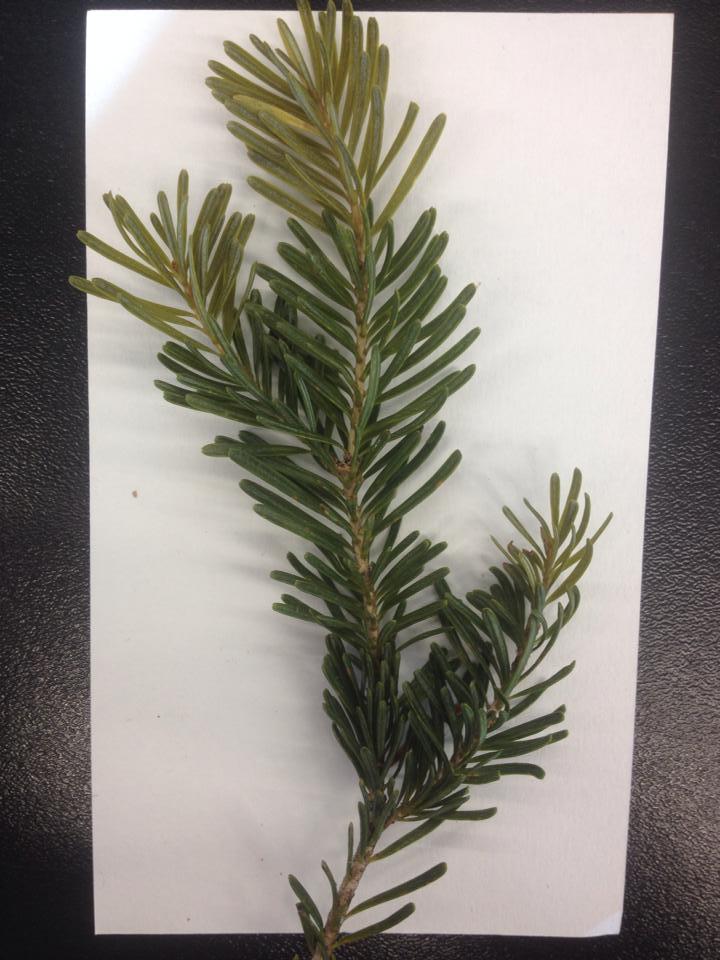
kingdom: Plantae
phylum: Tracheophyta
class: Pinopsida
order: Pinales
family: Pinaceae
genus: Abies
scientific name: Abies lasiocarpa
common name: Subalpine fir
